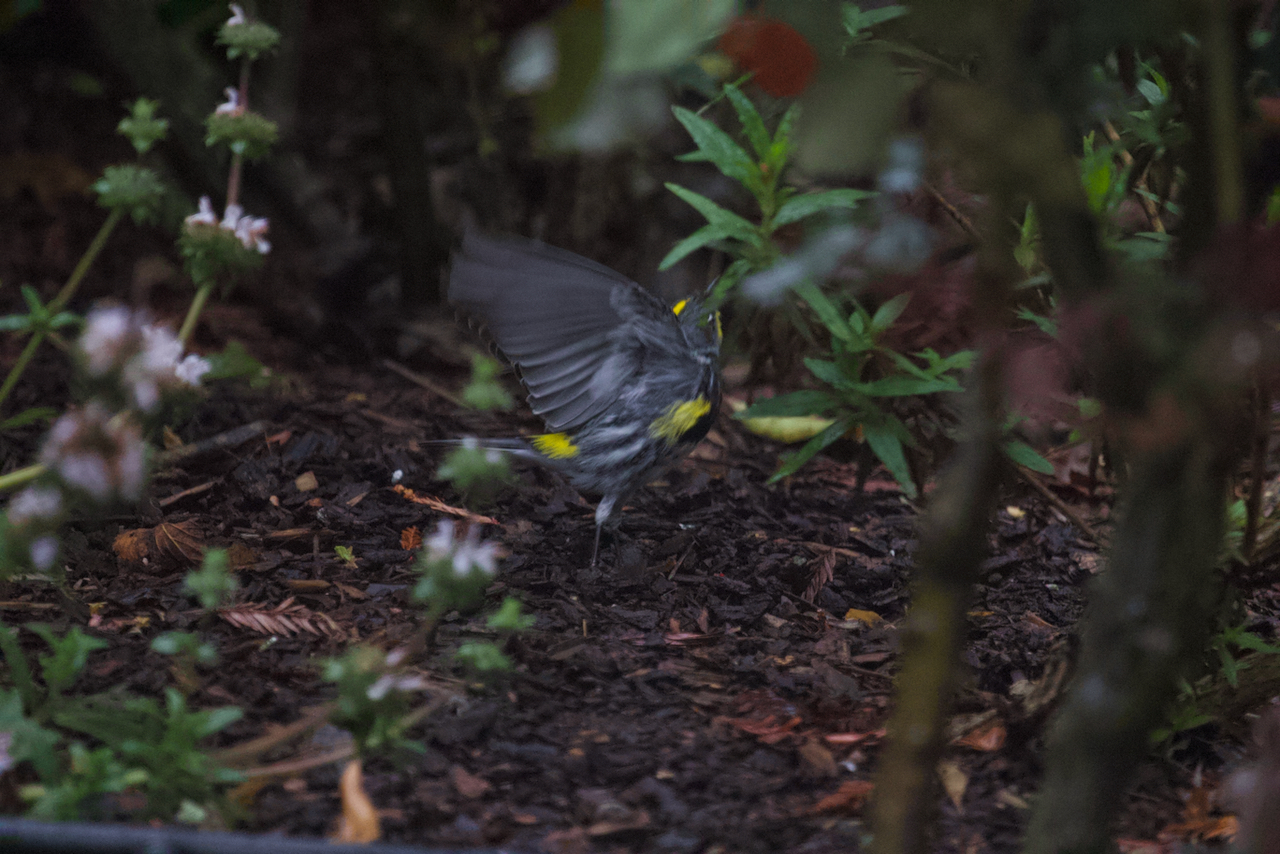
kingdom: Animalia
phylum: Chordata
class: Aves
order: Passeriformes
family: Parulidae
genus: Setophaga
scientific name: Setophaga coronata
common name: Myrtle warbler
